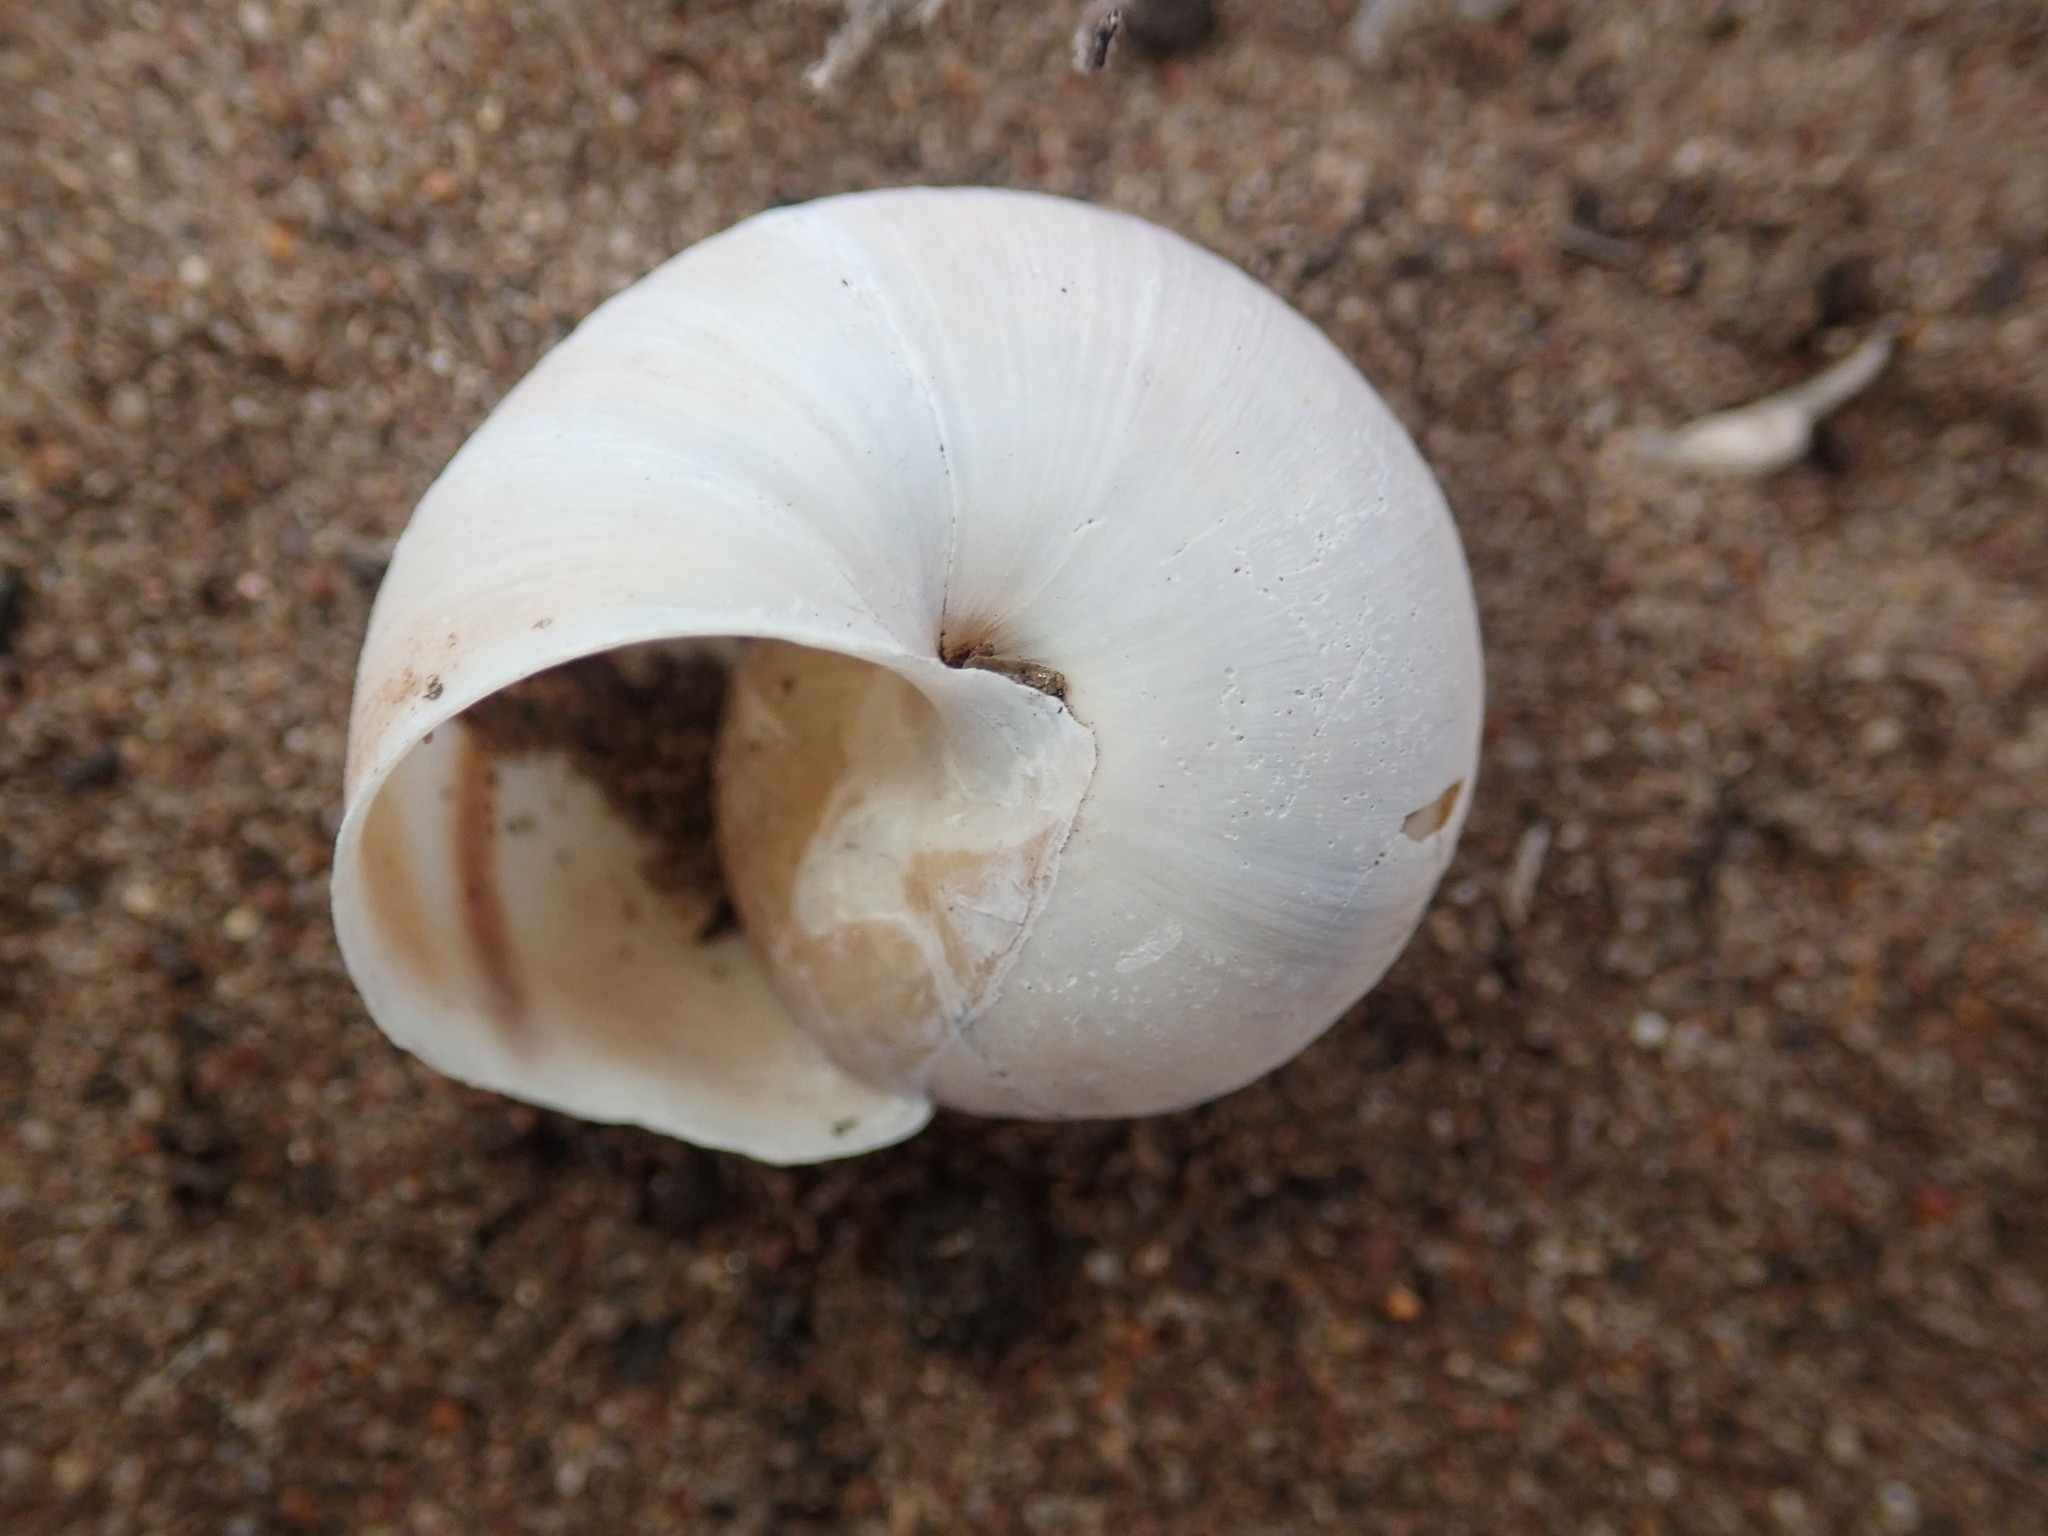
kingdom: Animalia
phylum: Mollusca
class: Gastropoda
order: Stylommatophora
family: Xanthonychidae
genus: Helminthoglypta
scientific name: Helminthoglypta walkeriana
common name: Banded dune snail
